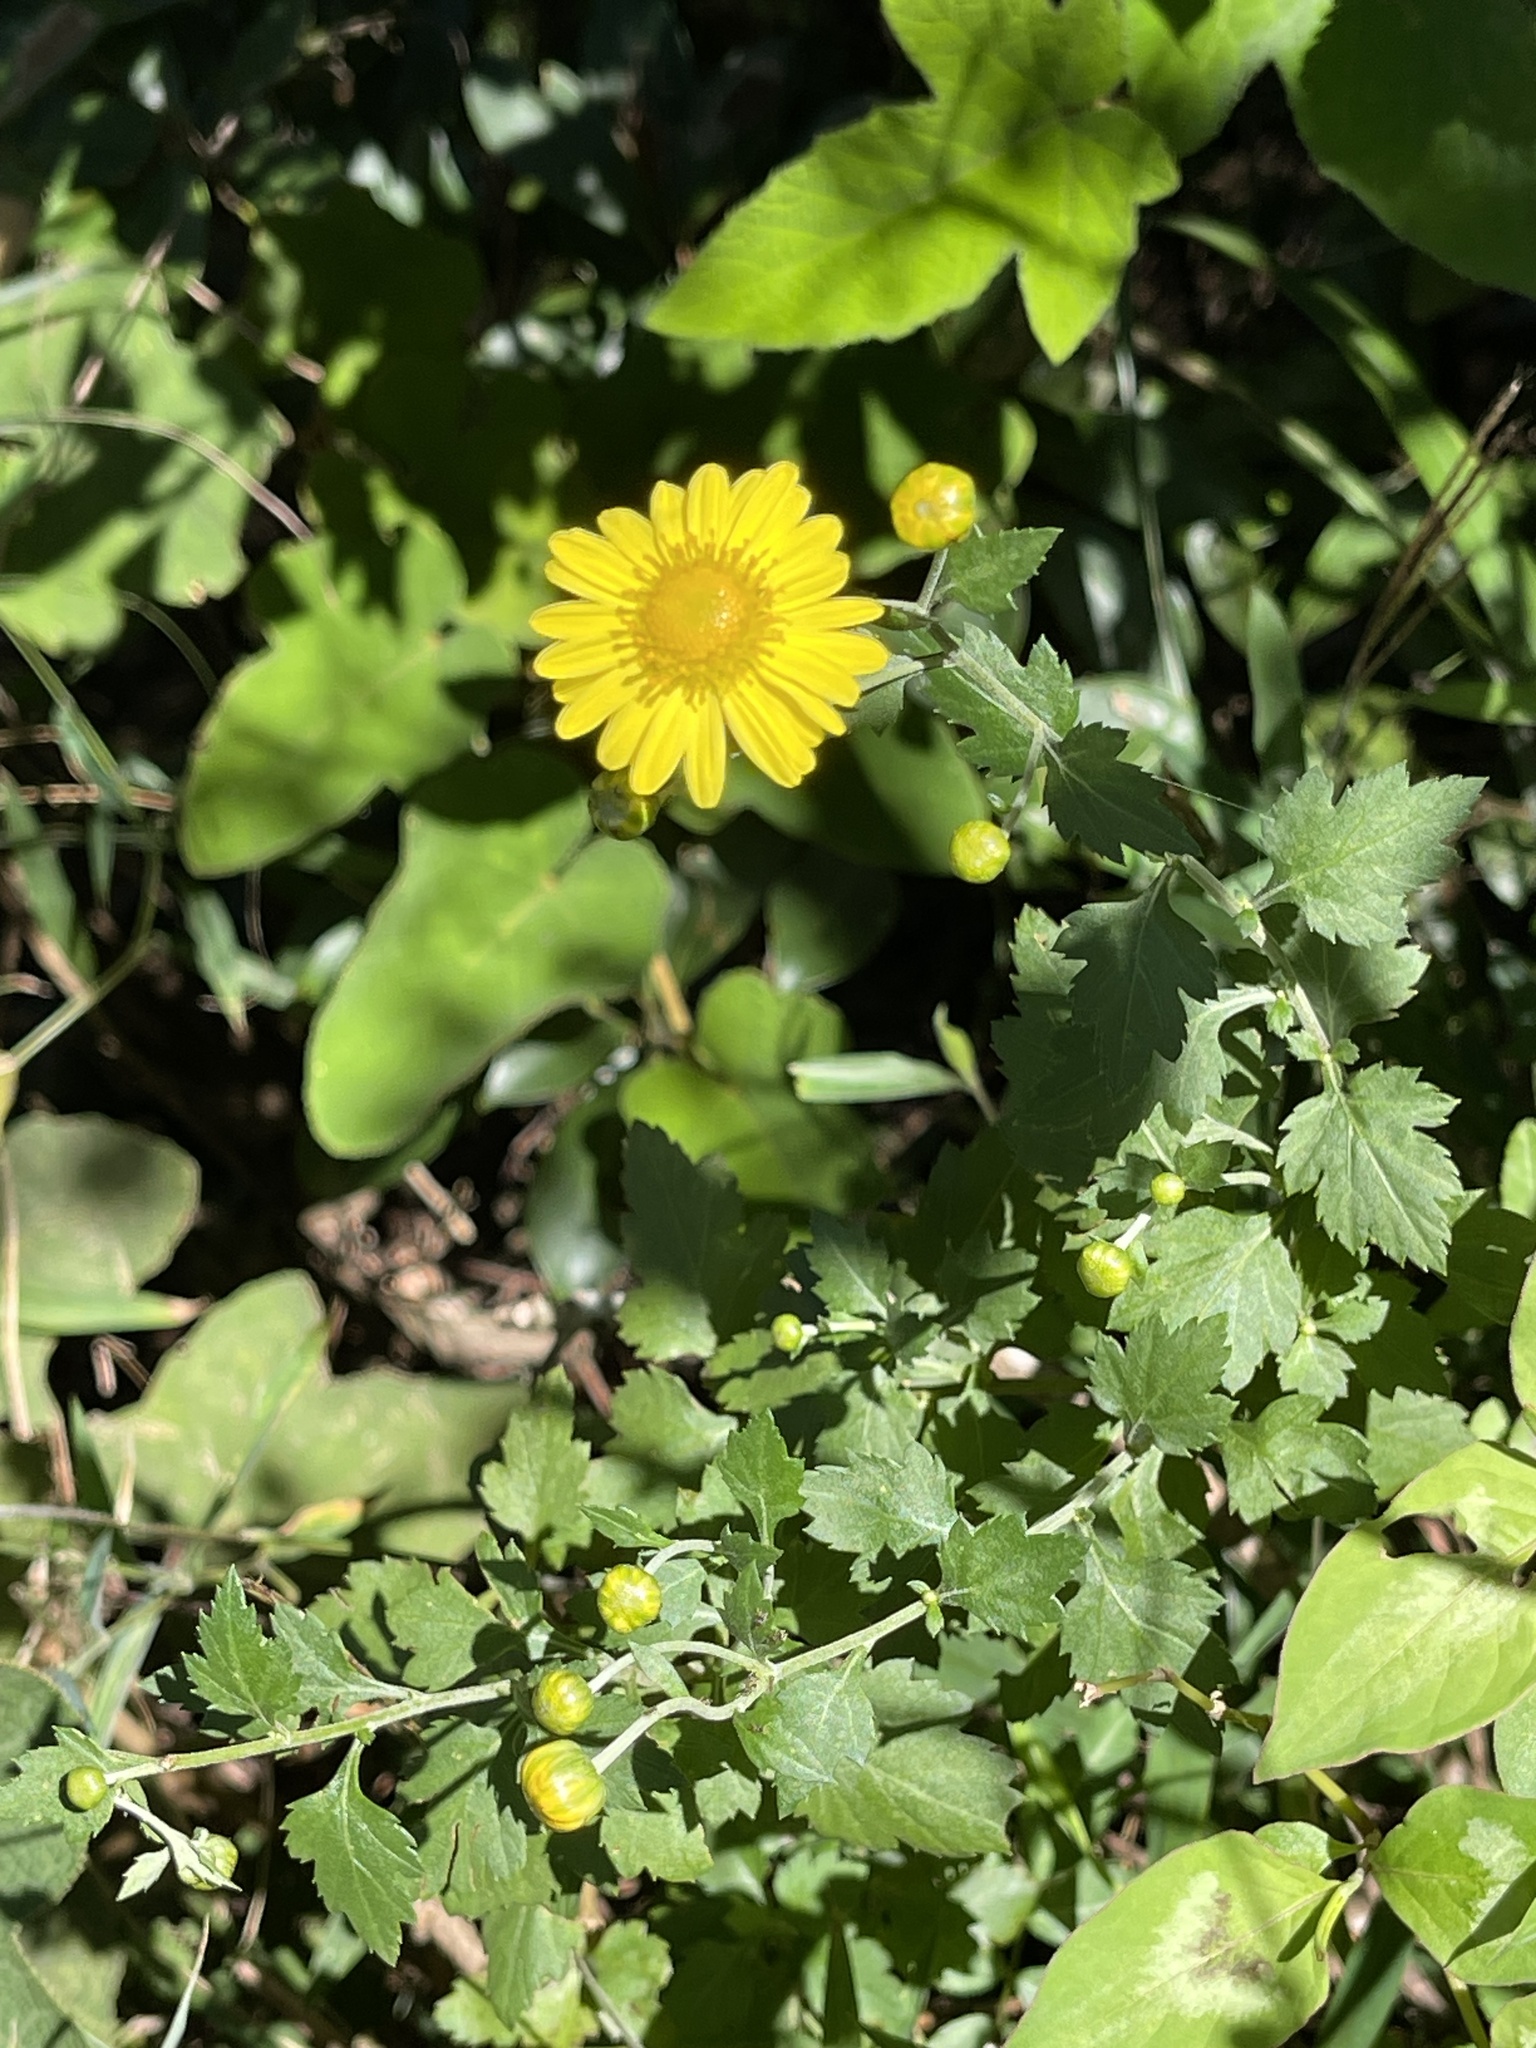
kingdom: Plantae
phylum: Tracheophyta
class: Magnoliopsida
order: Asterales
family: Asteraceae
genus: Chrysanthemum
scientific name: Chrysanthemum indicum
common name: Indian chrysanthemum
